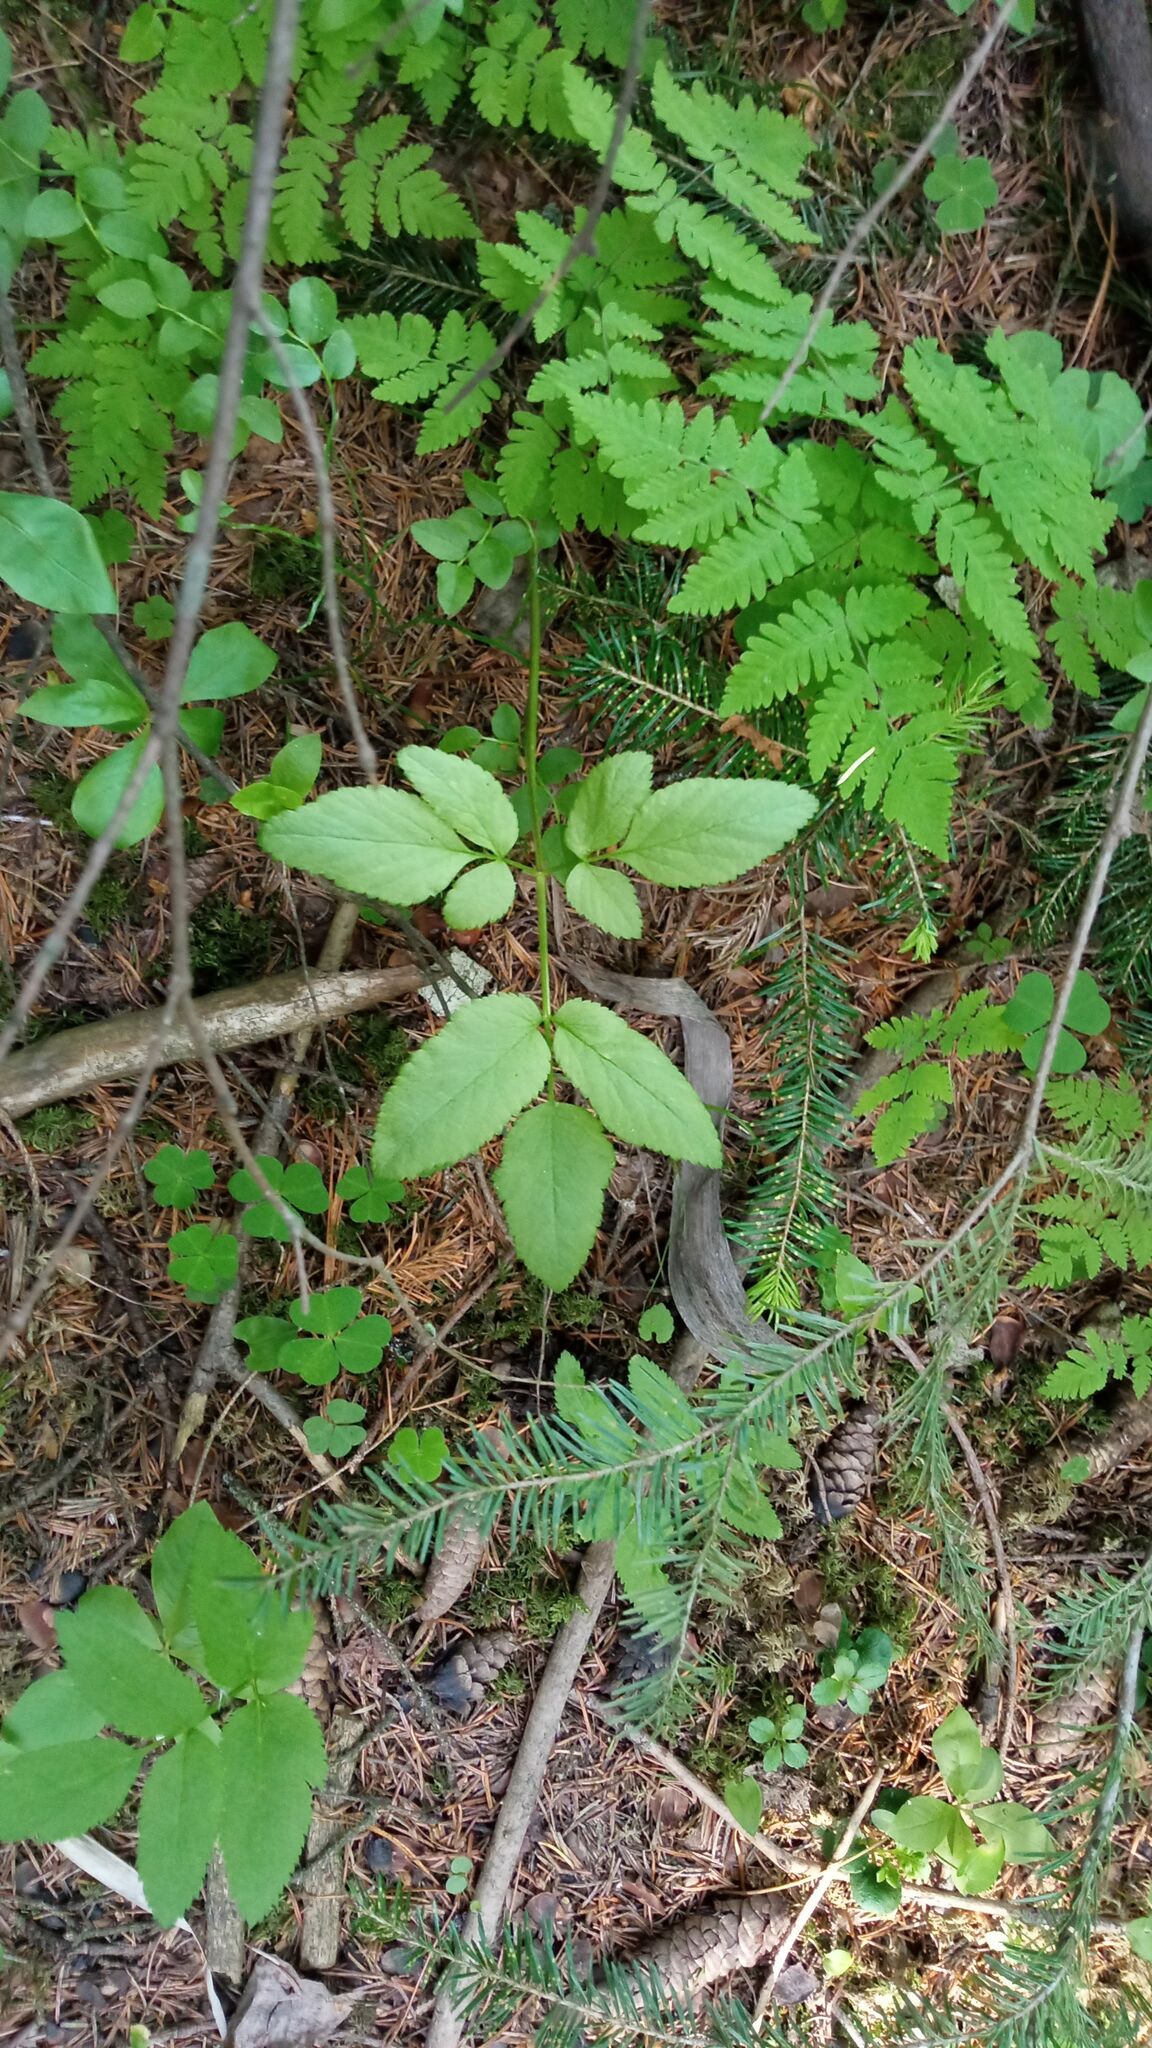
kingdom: Plantae
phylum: Tracheophyta
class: Magnoliopsida
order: Apiales
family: Apiaceae
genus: Aegopodium
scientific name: Aegopodium podagraria
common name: Ground-elder
